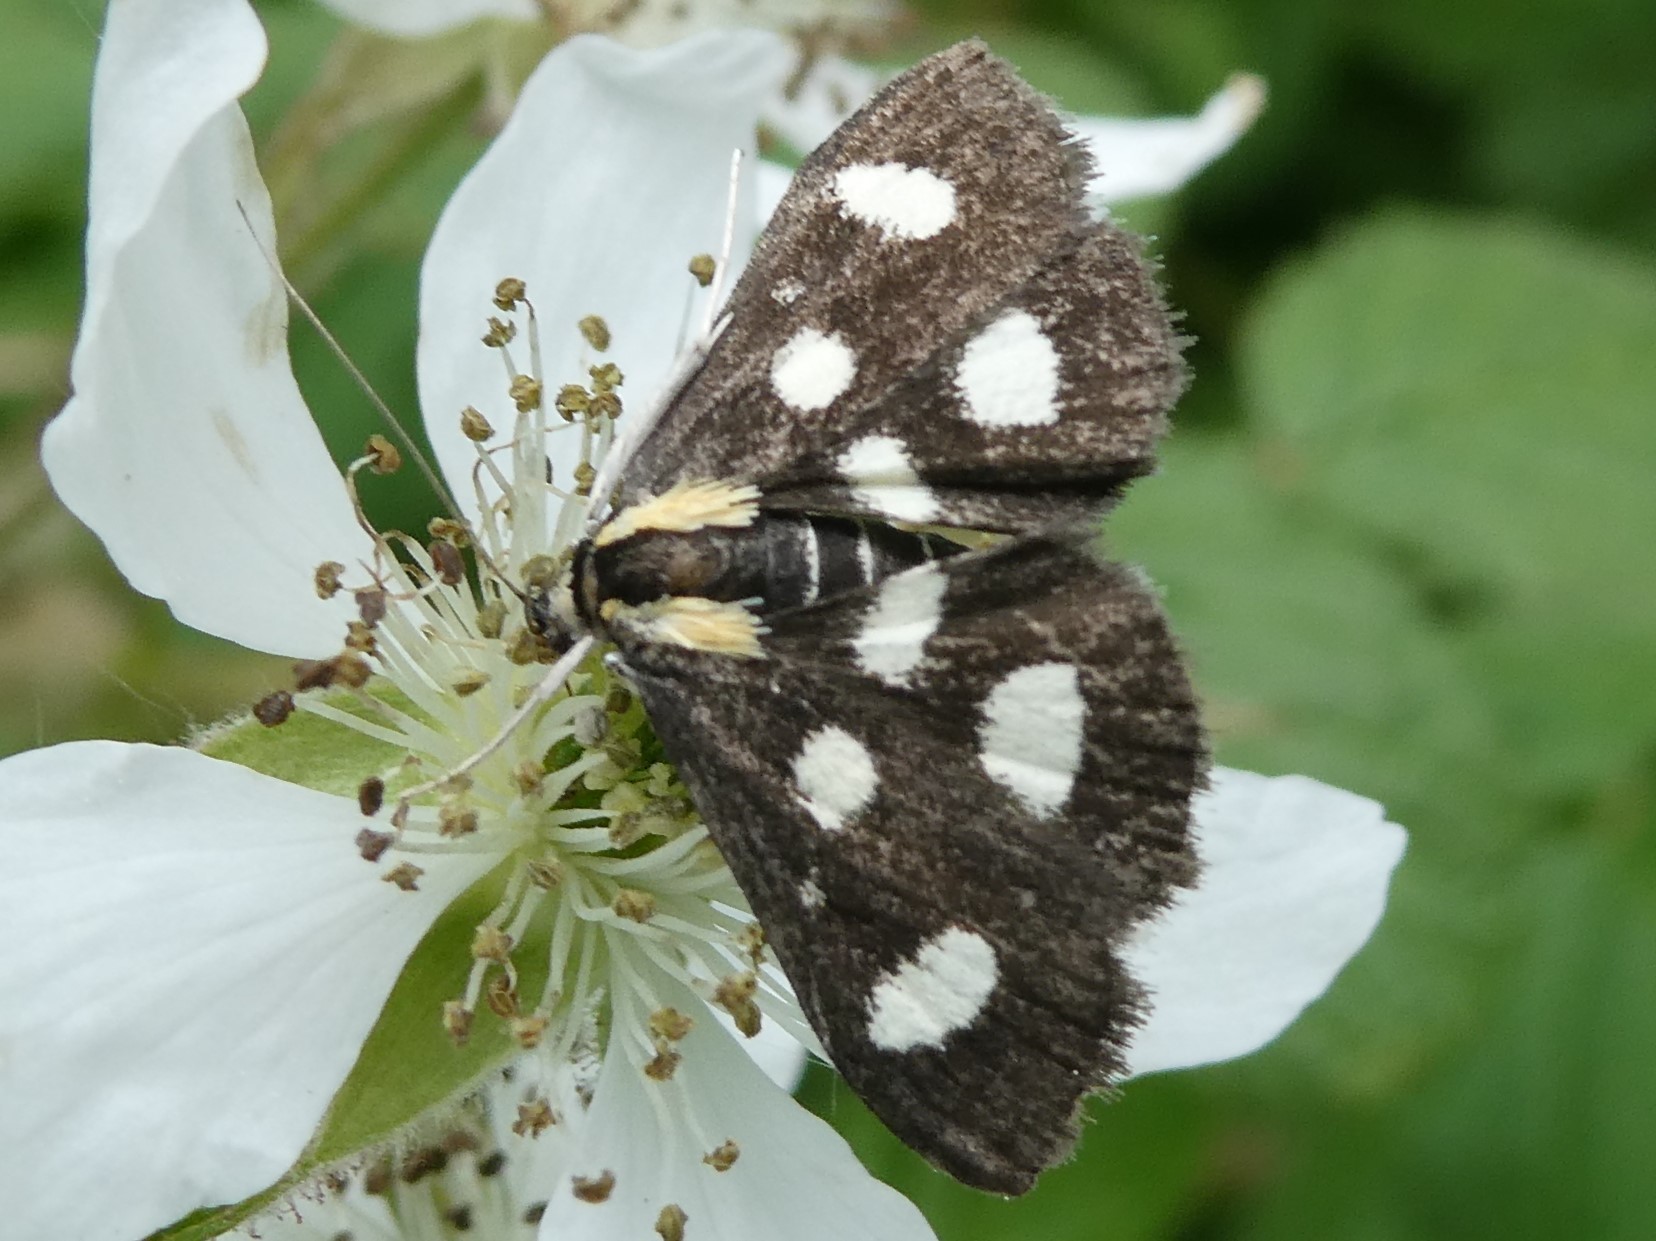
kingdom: Animalia
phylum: Arthropoda
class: Insecta
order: Lepidoptera
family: Crambidae
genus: Anania
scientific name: Anania funebris
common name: White-spotted sable moth
